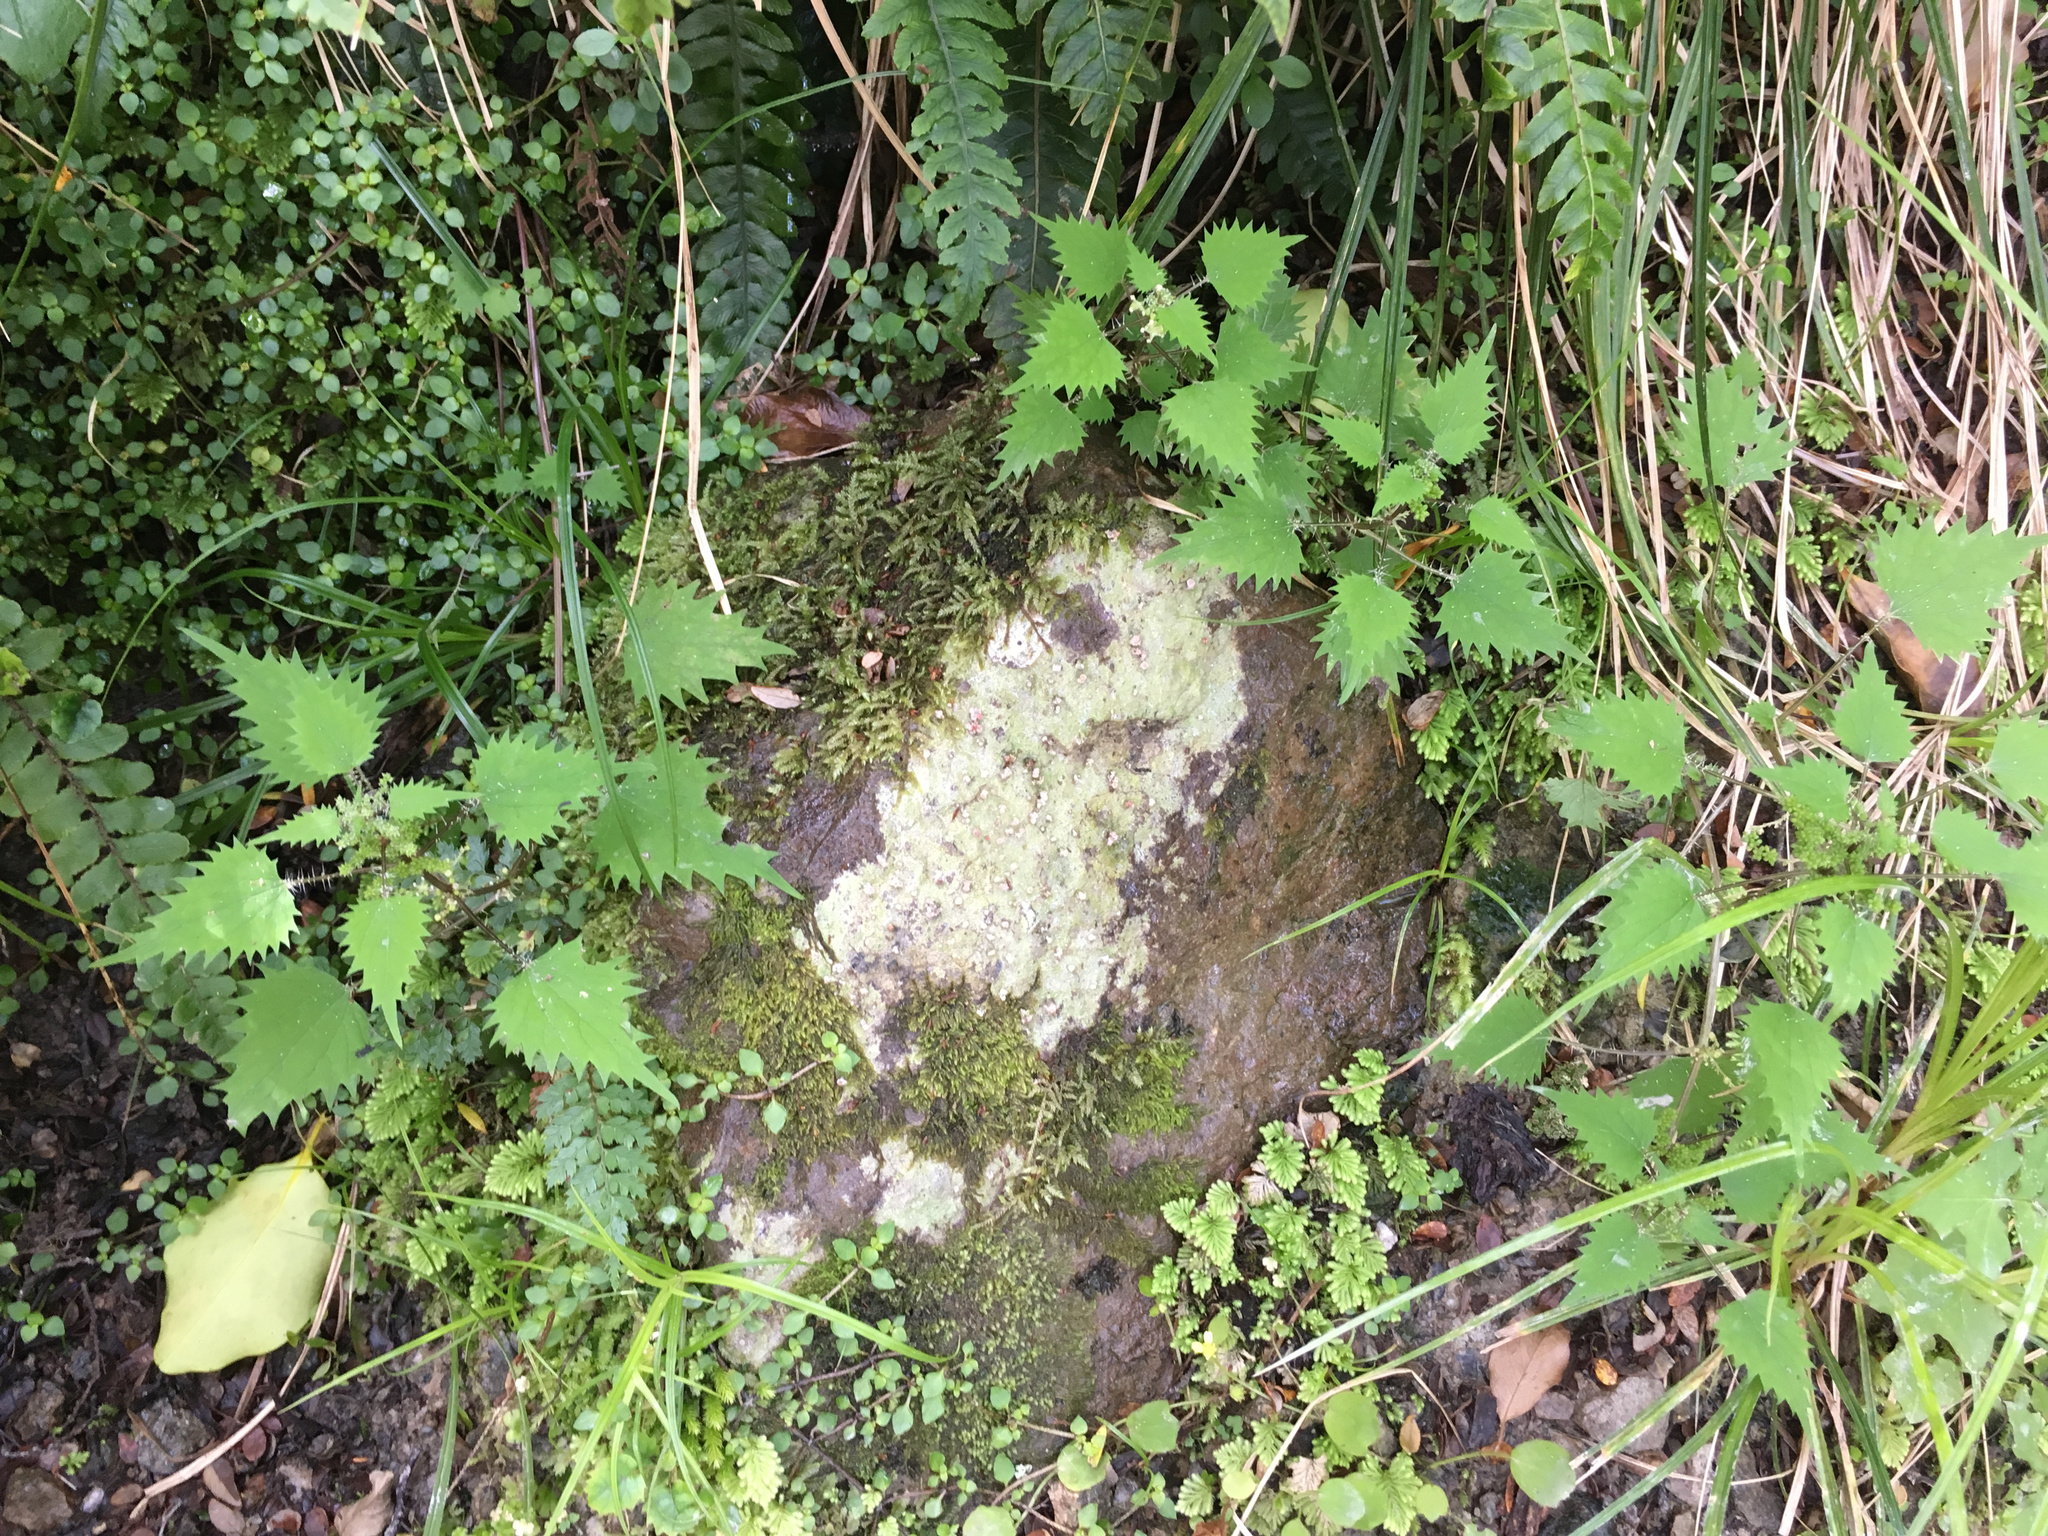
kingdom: Plantae
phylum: Tracheophyta
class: Magnoliopsida
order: Rosales
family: Urticaceae
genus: Urtica
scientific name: Urtica sykesii
